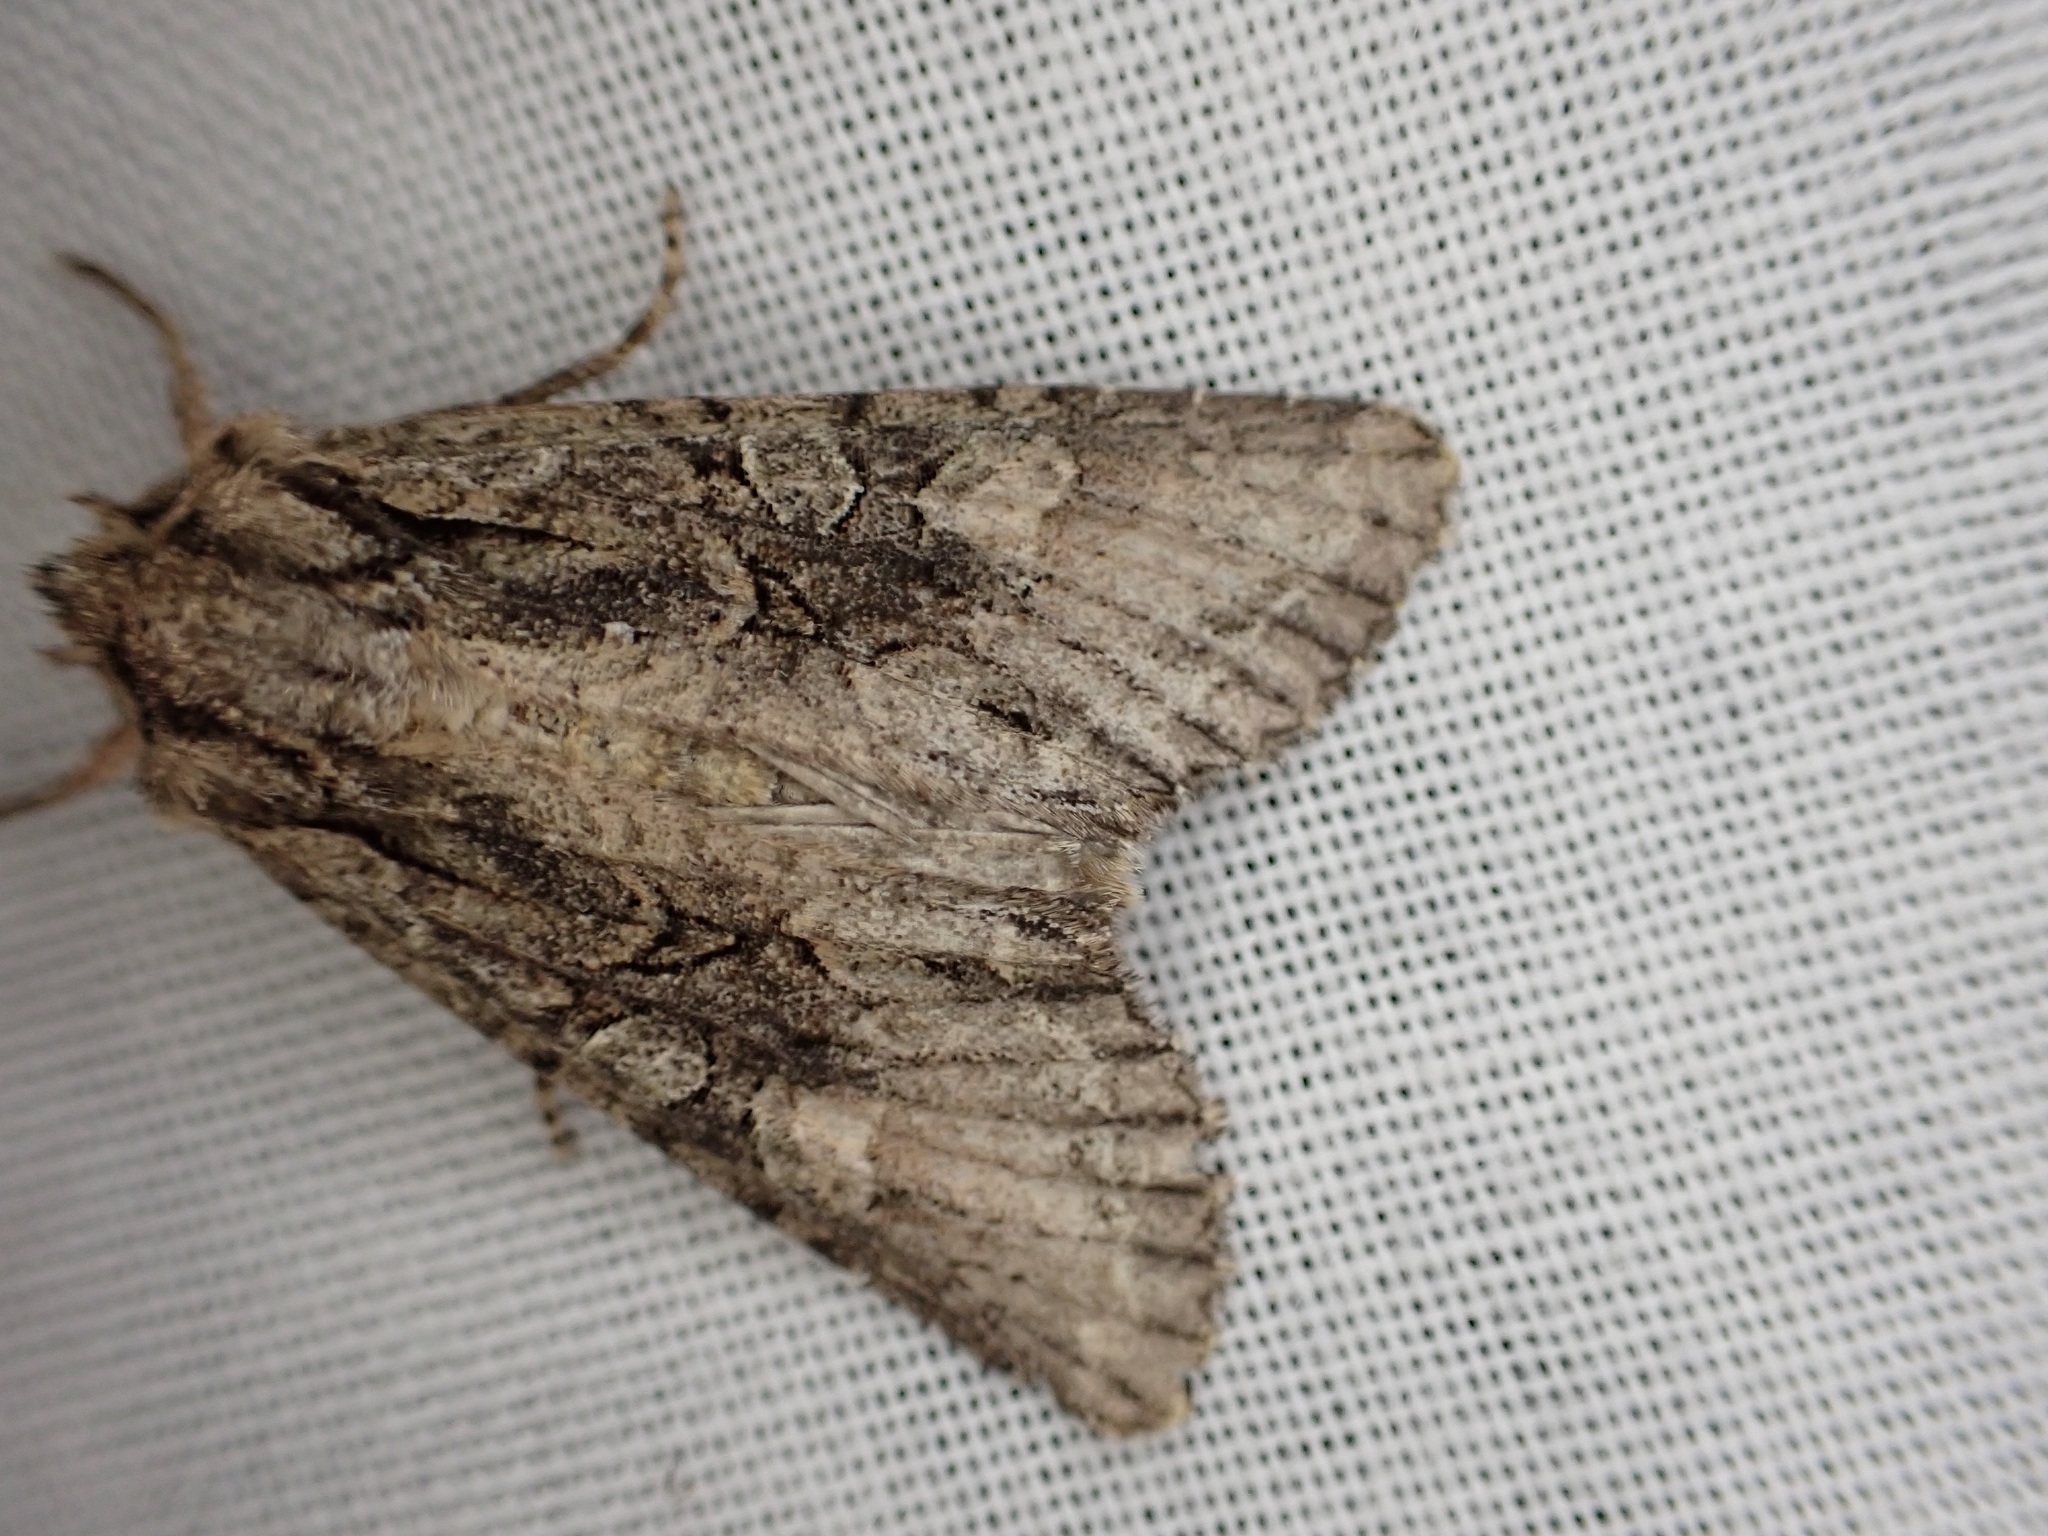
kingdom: Animalia
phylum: Arthropoda
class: Insecta
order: Lepidoptera
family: Noctuidae
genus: Ichneutica
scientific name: Ichneutica mutans
